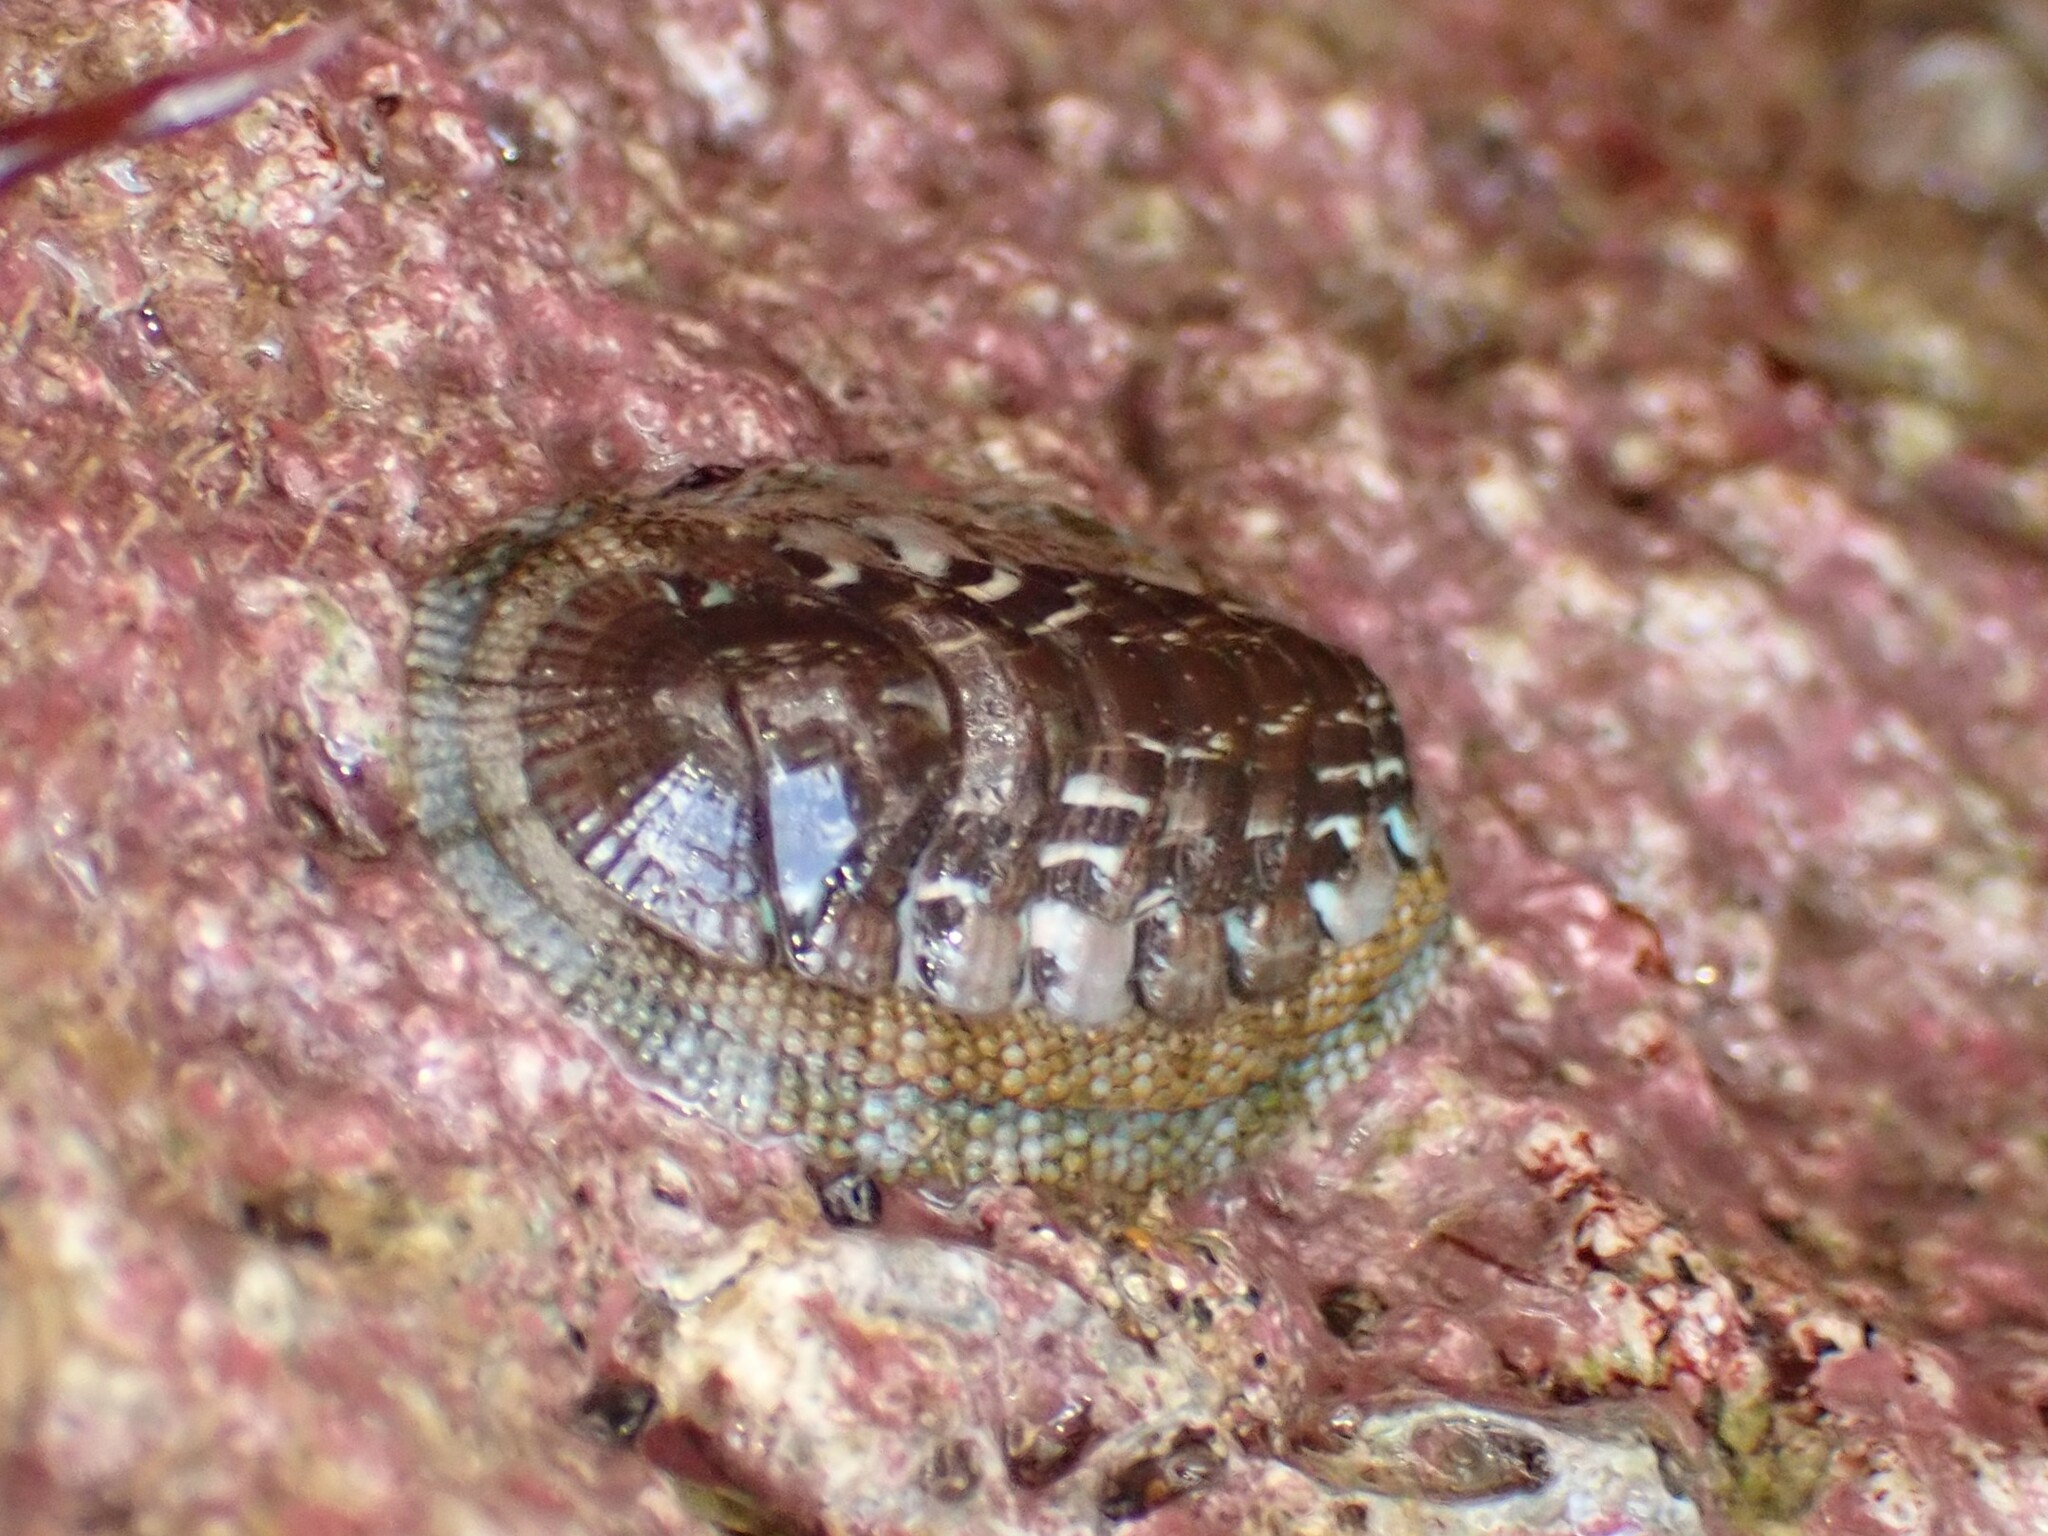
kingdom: Animalia
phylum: Mollusca
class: Polyplacophora
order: Chitonida
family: Chitonidae
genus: Sypharochiton
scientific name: Sypharochiton sinclairi
